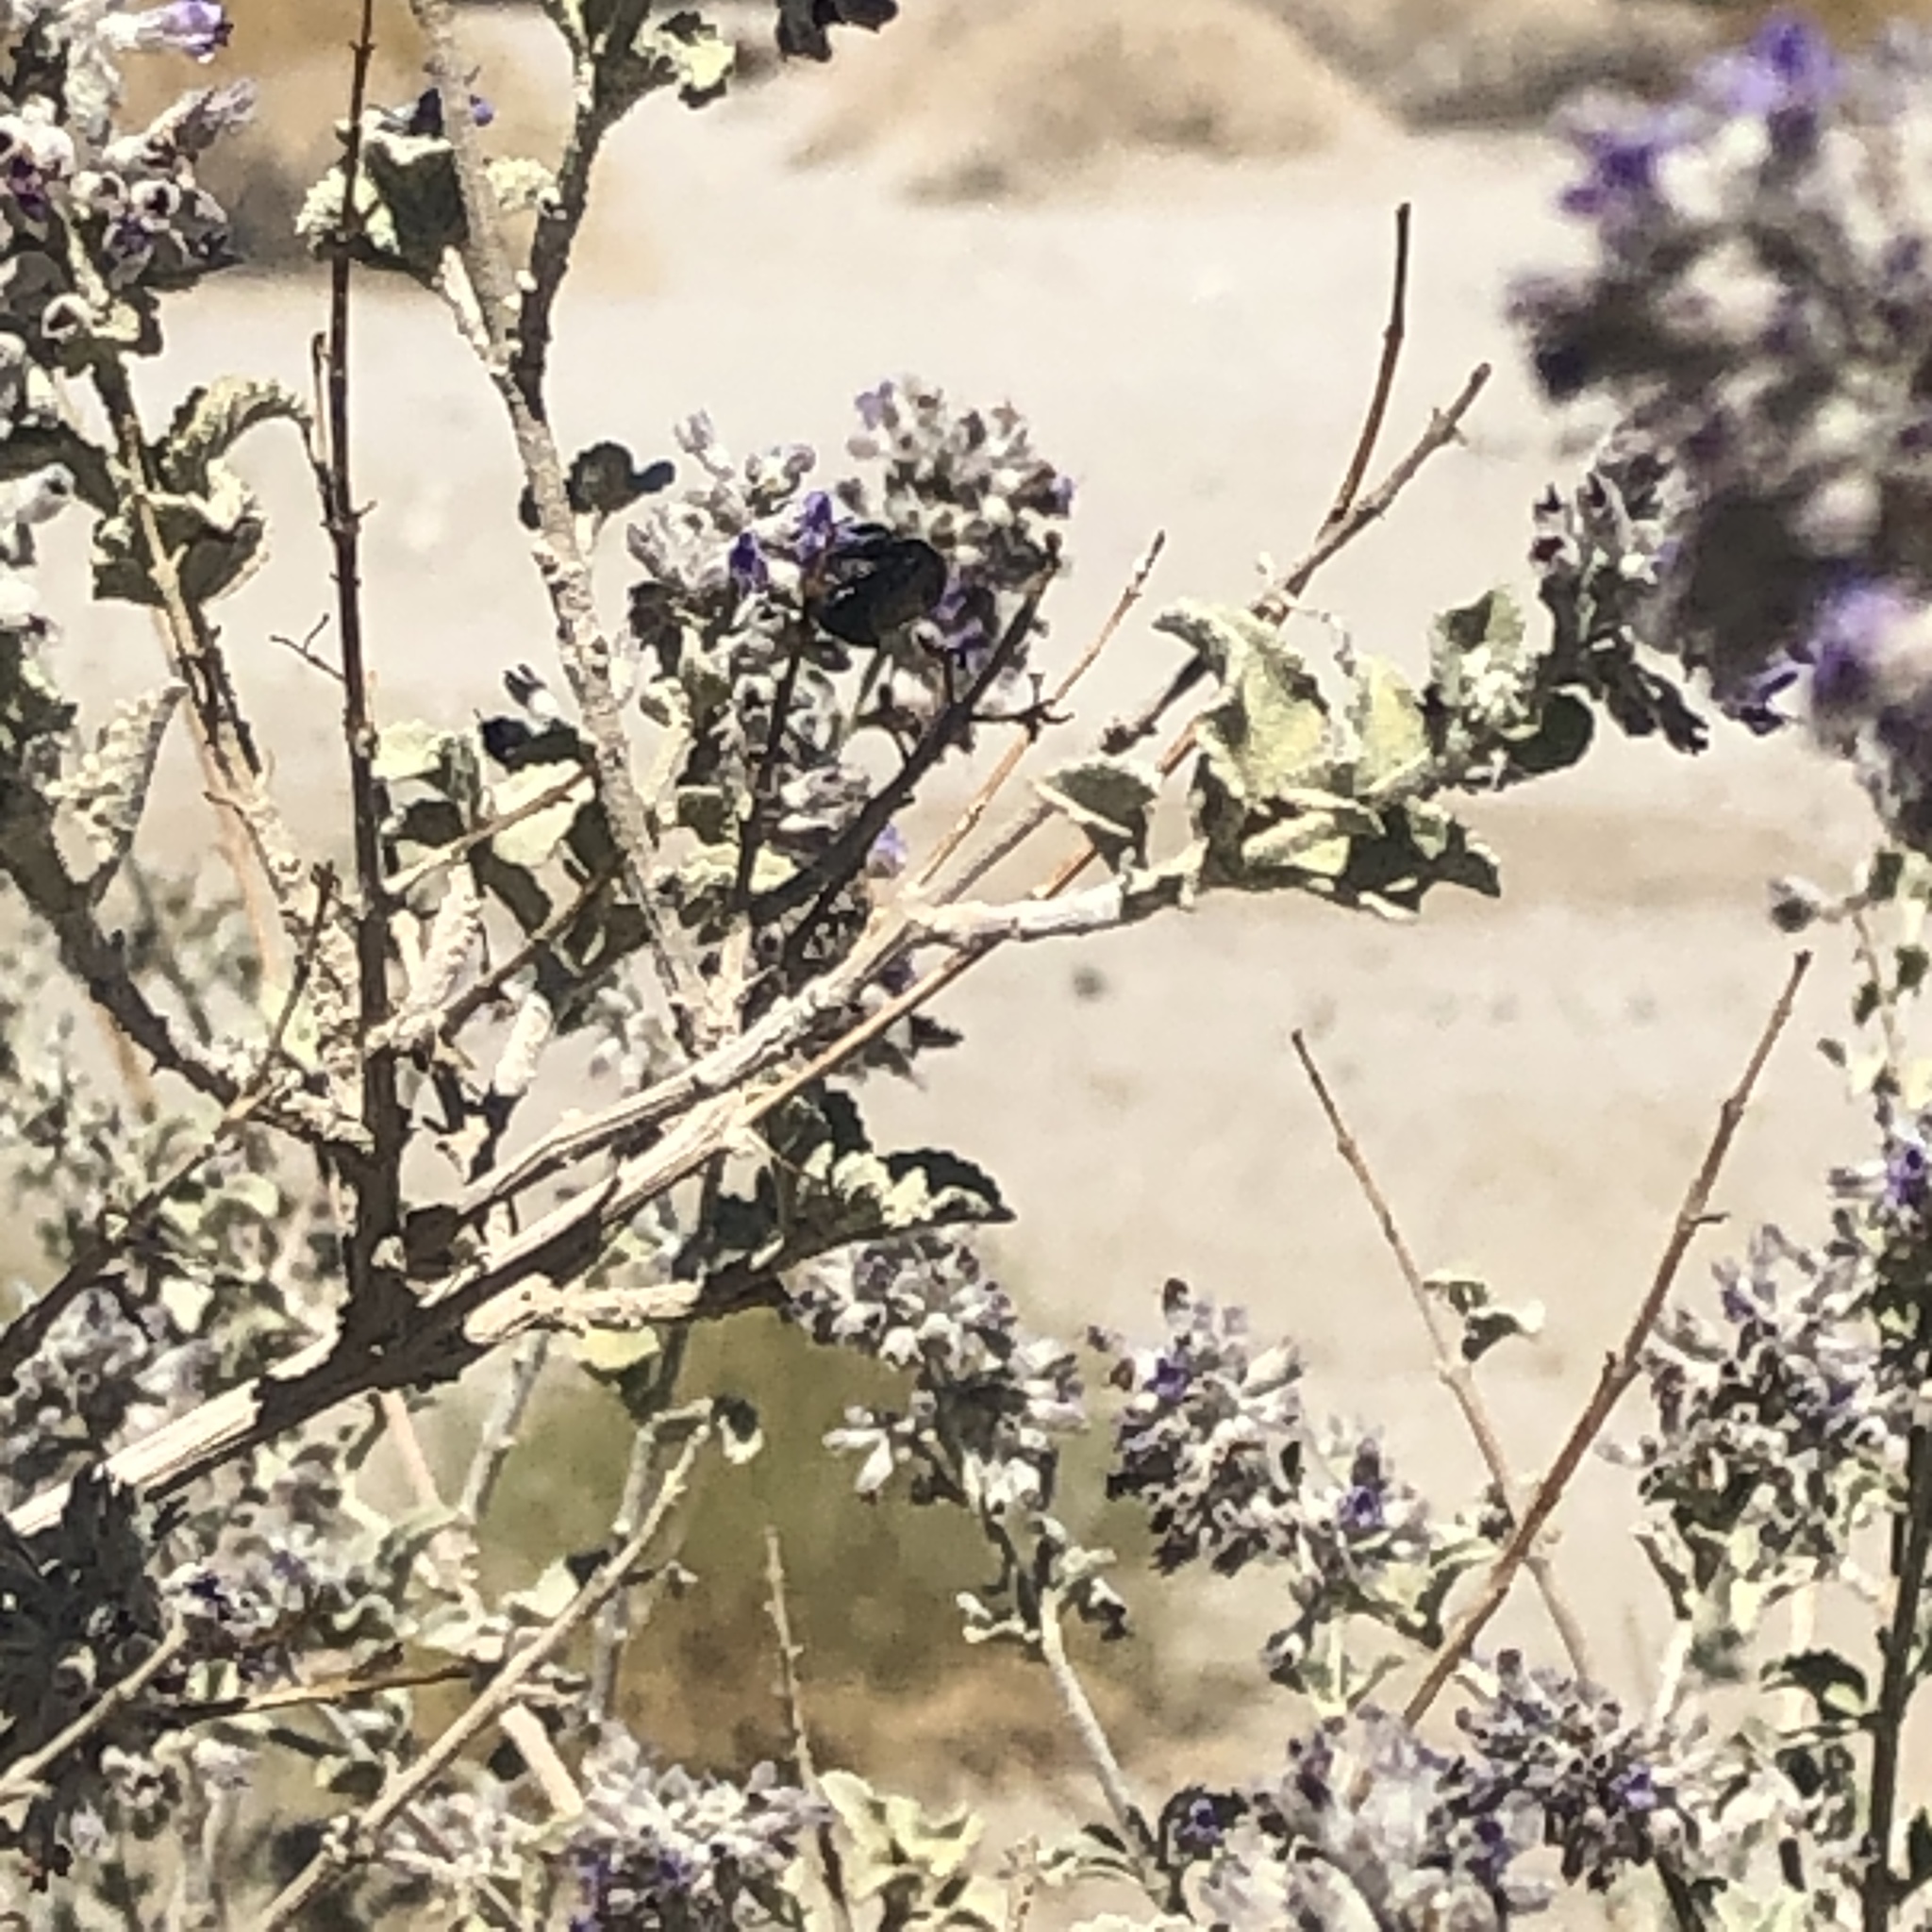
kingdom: Plantae
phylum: Tracheophyta
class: Magnoliopsida
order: Lamiales
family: Lamiaceae
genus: Condea
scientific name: Condea emoryi
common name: Chia
